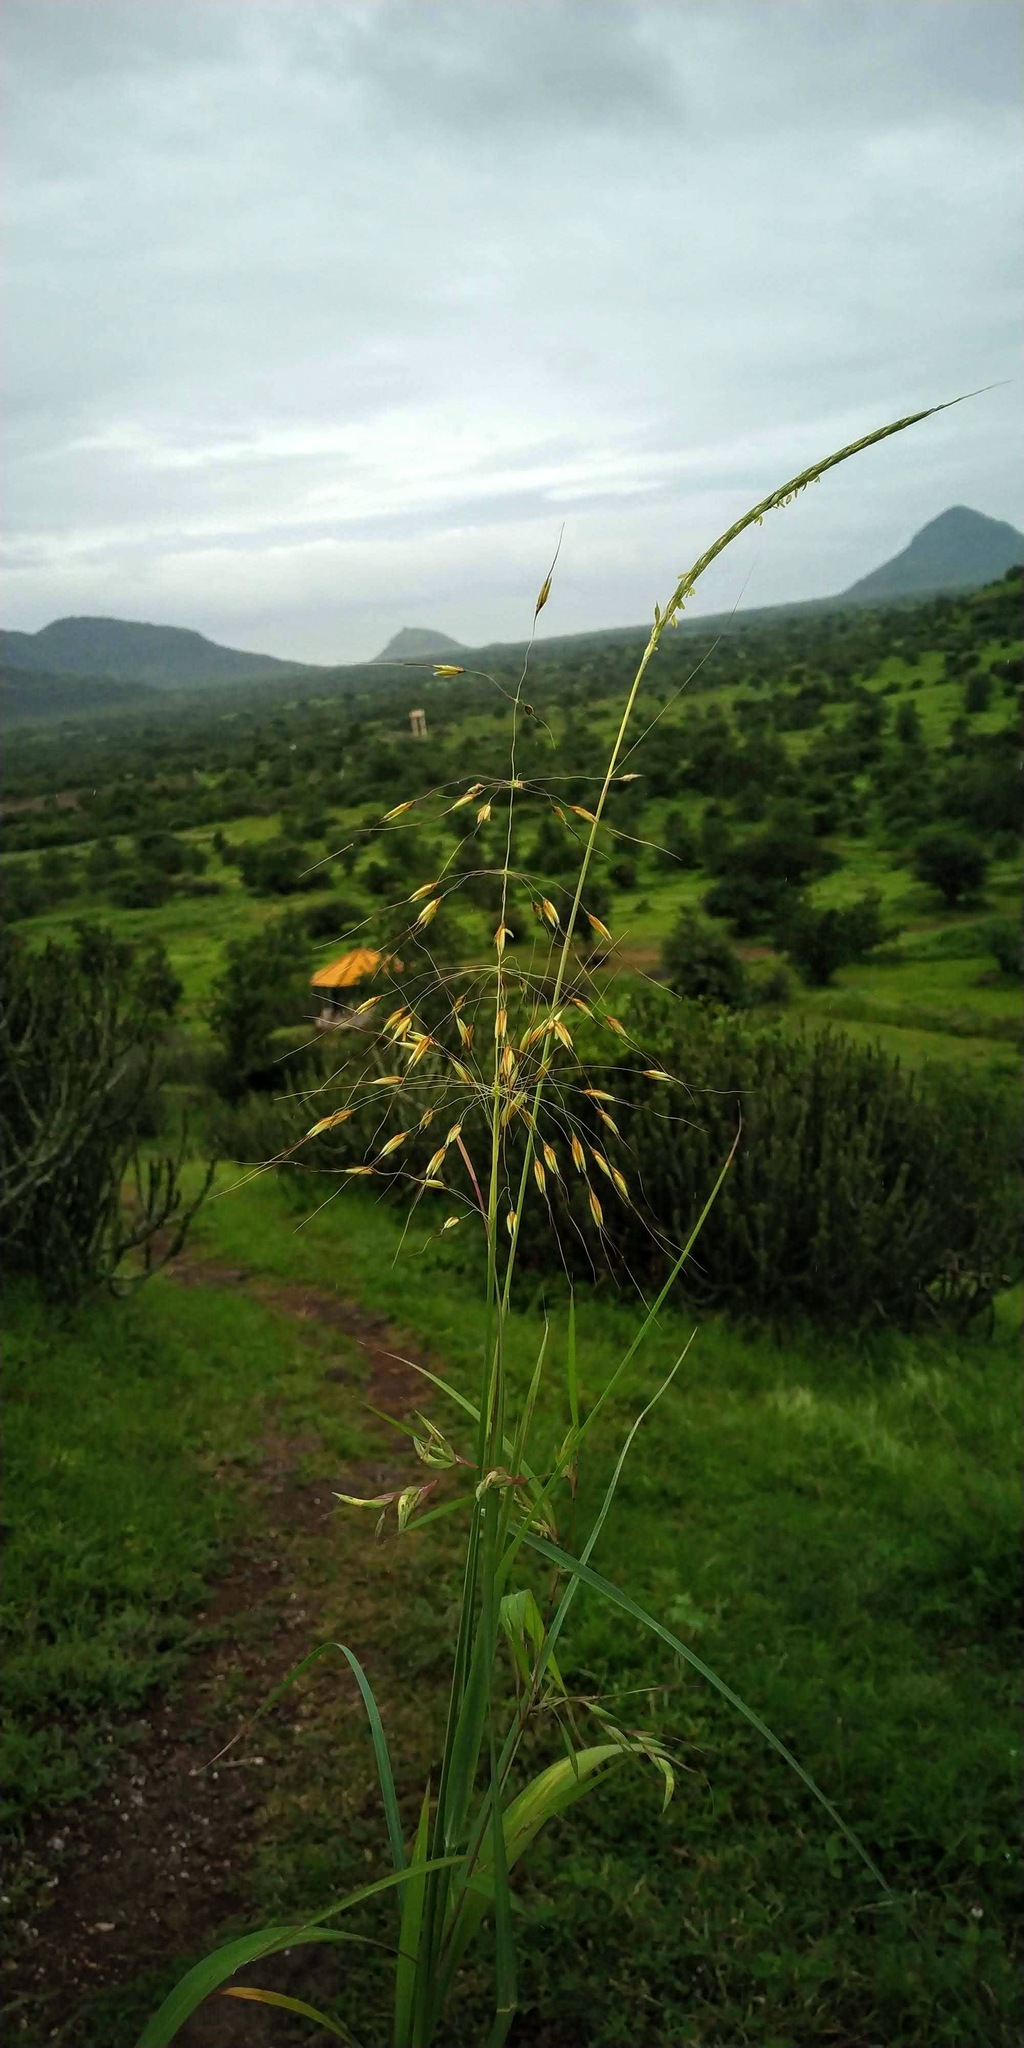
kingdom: Plantae
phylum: Tracheophyta
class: Liliopsida
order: Poales
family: Poaceae
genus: Chrysopogon
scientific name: Chrysopogon fulvus
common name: Red false beardgrass
